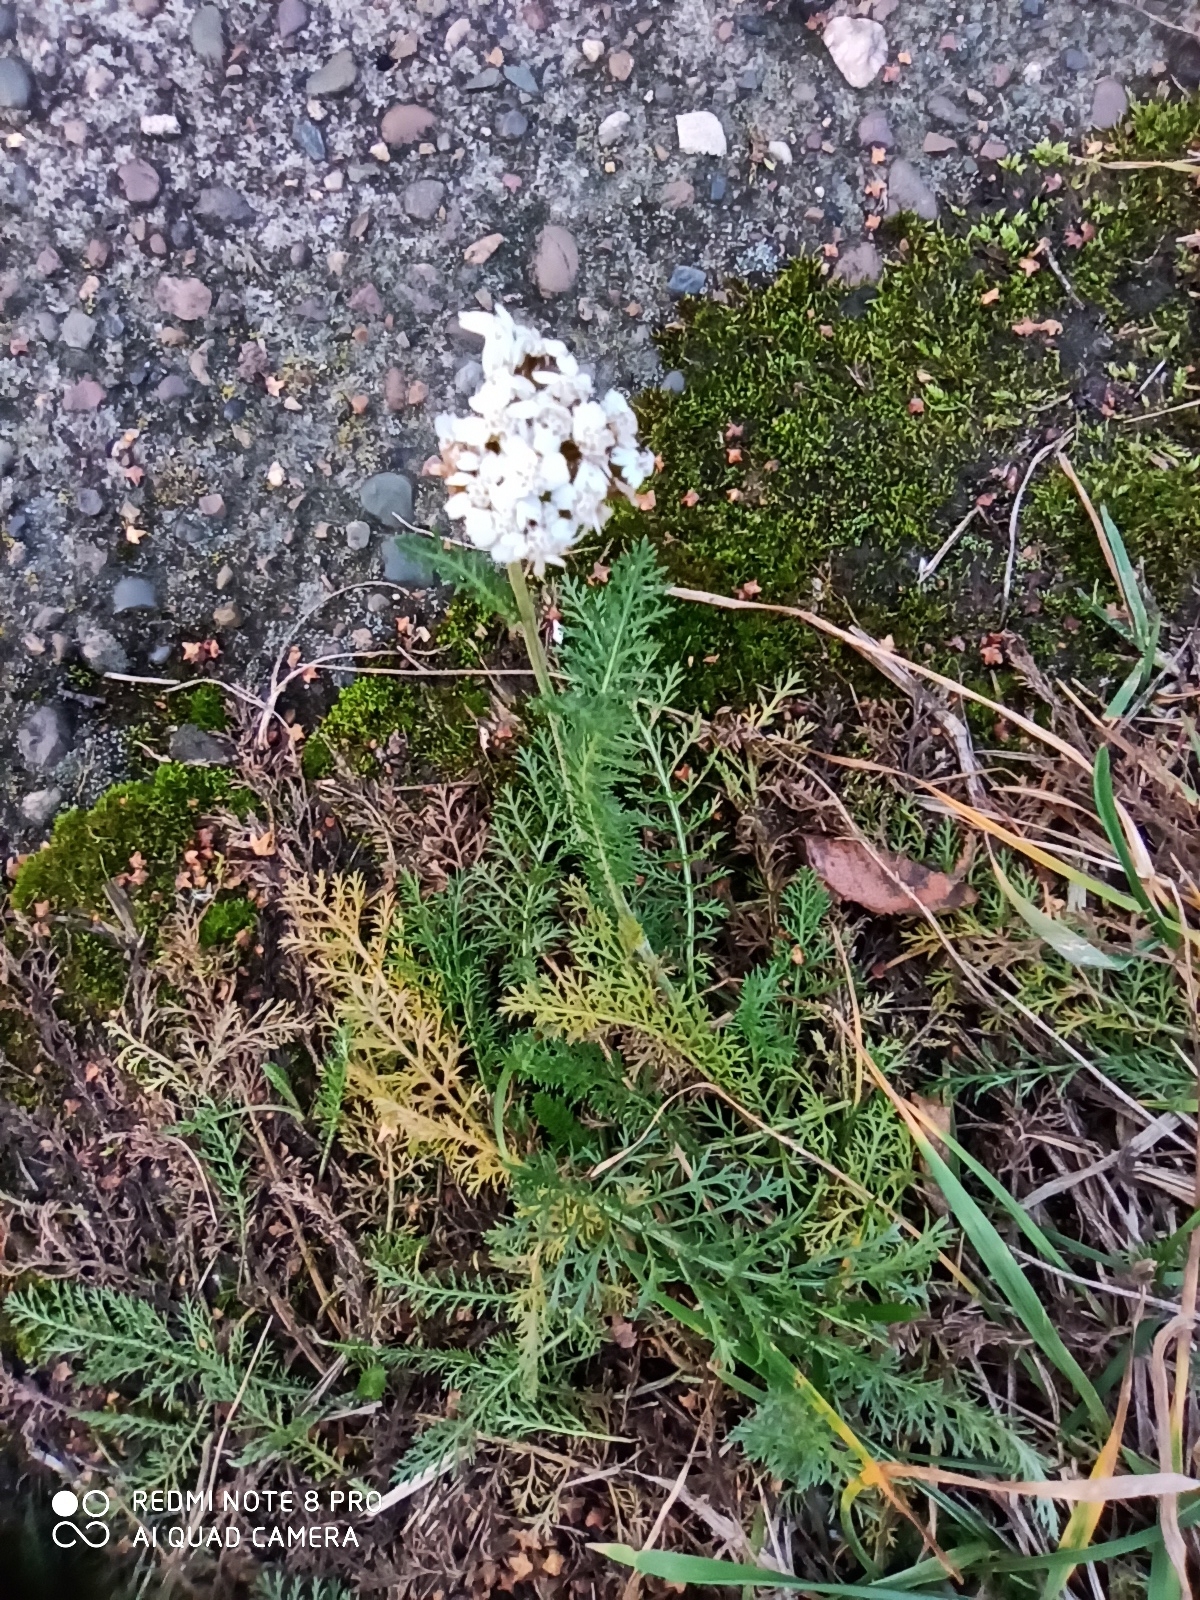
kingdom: Plantae
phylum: Tracheophyta
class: Magnoliopsida
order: Asterales
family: Asteraceae
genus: Achillea
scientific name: Achillea millefolium
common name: Yarrow
